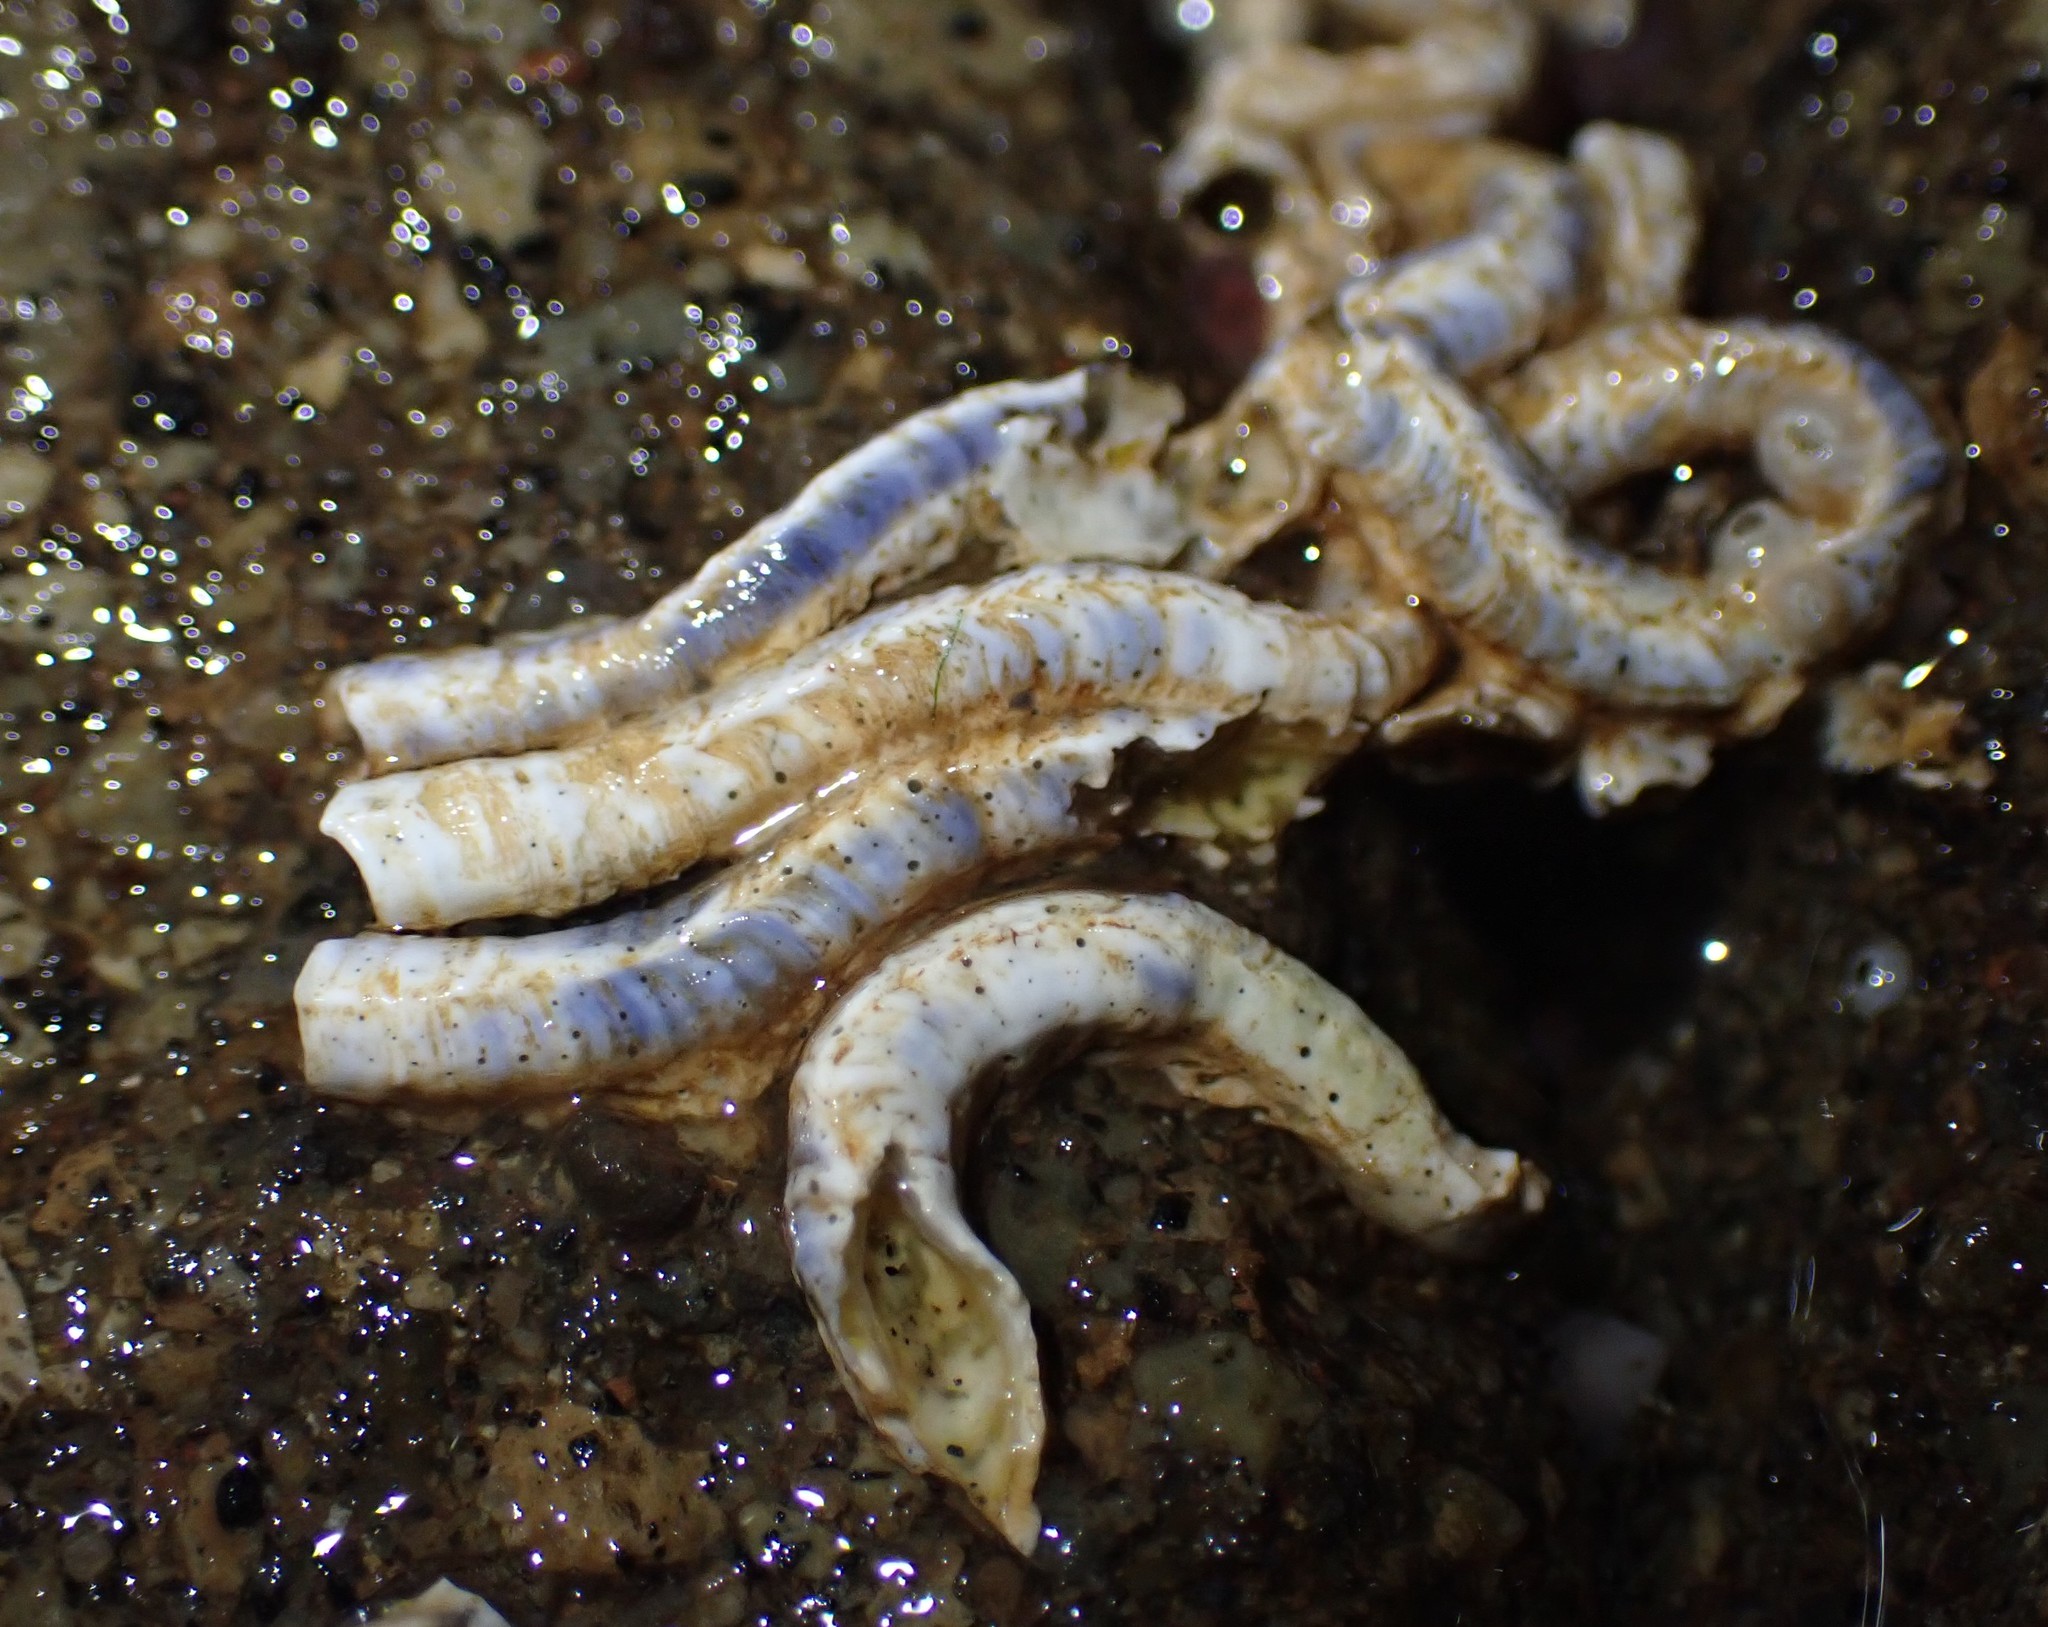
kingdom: Animalia
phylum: Annelida
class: Polychaeta
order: Sabellida
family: Serpulidae
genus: Spirobranchus
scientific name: Spirobranchus cariniferus
